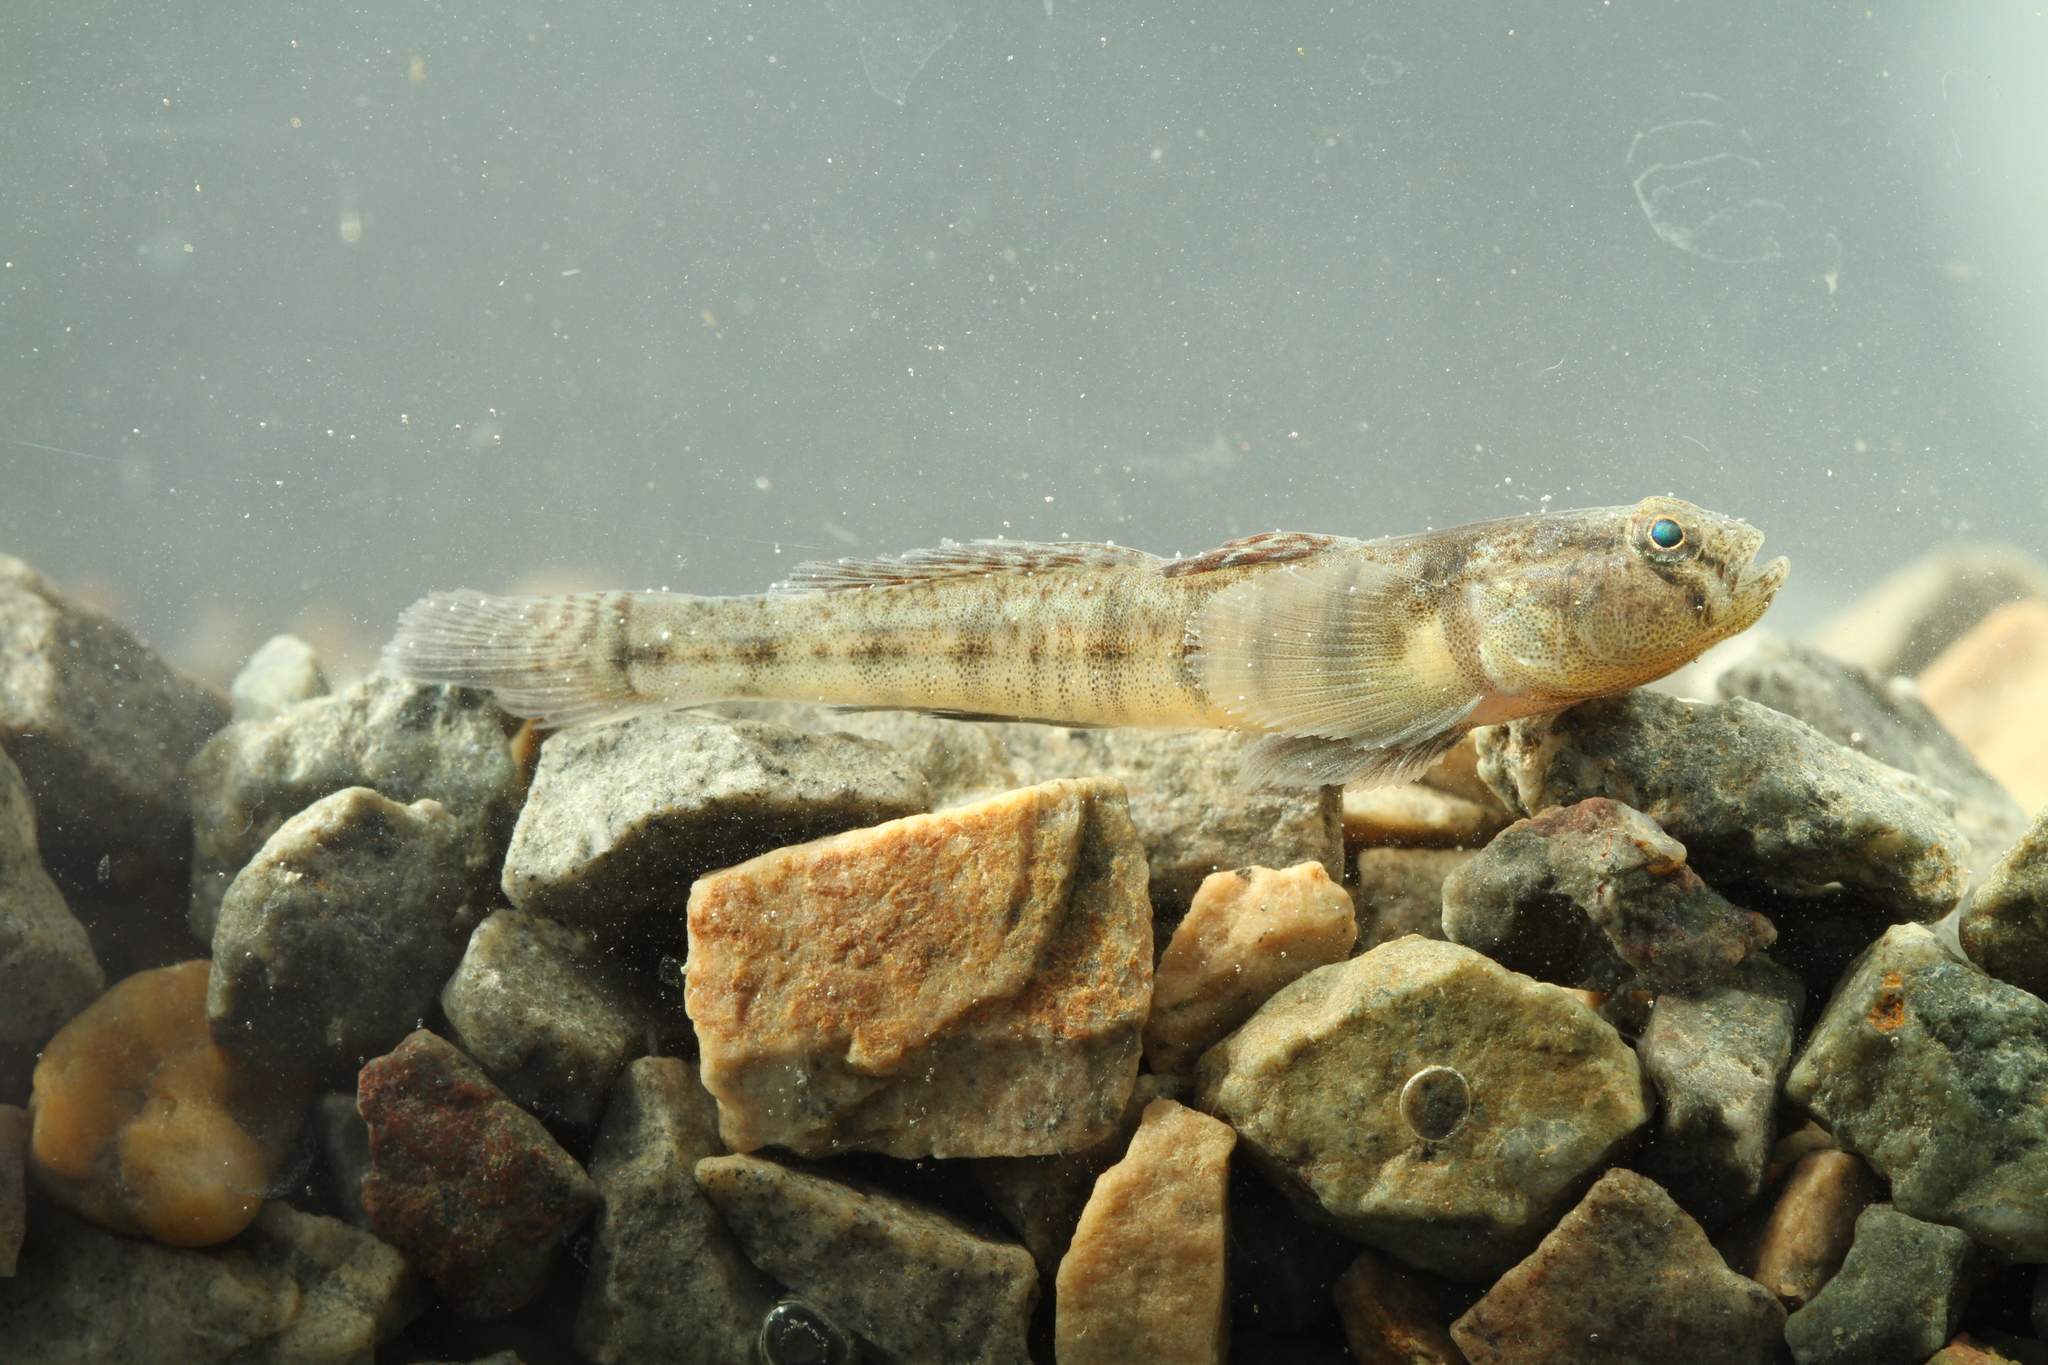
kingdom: Animalia
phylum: Chordata
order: Perciformes
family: Gobiidae
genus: Pomatoschistus
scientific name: Pomatoschistus microps
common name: Common goby
